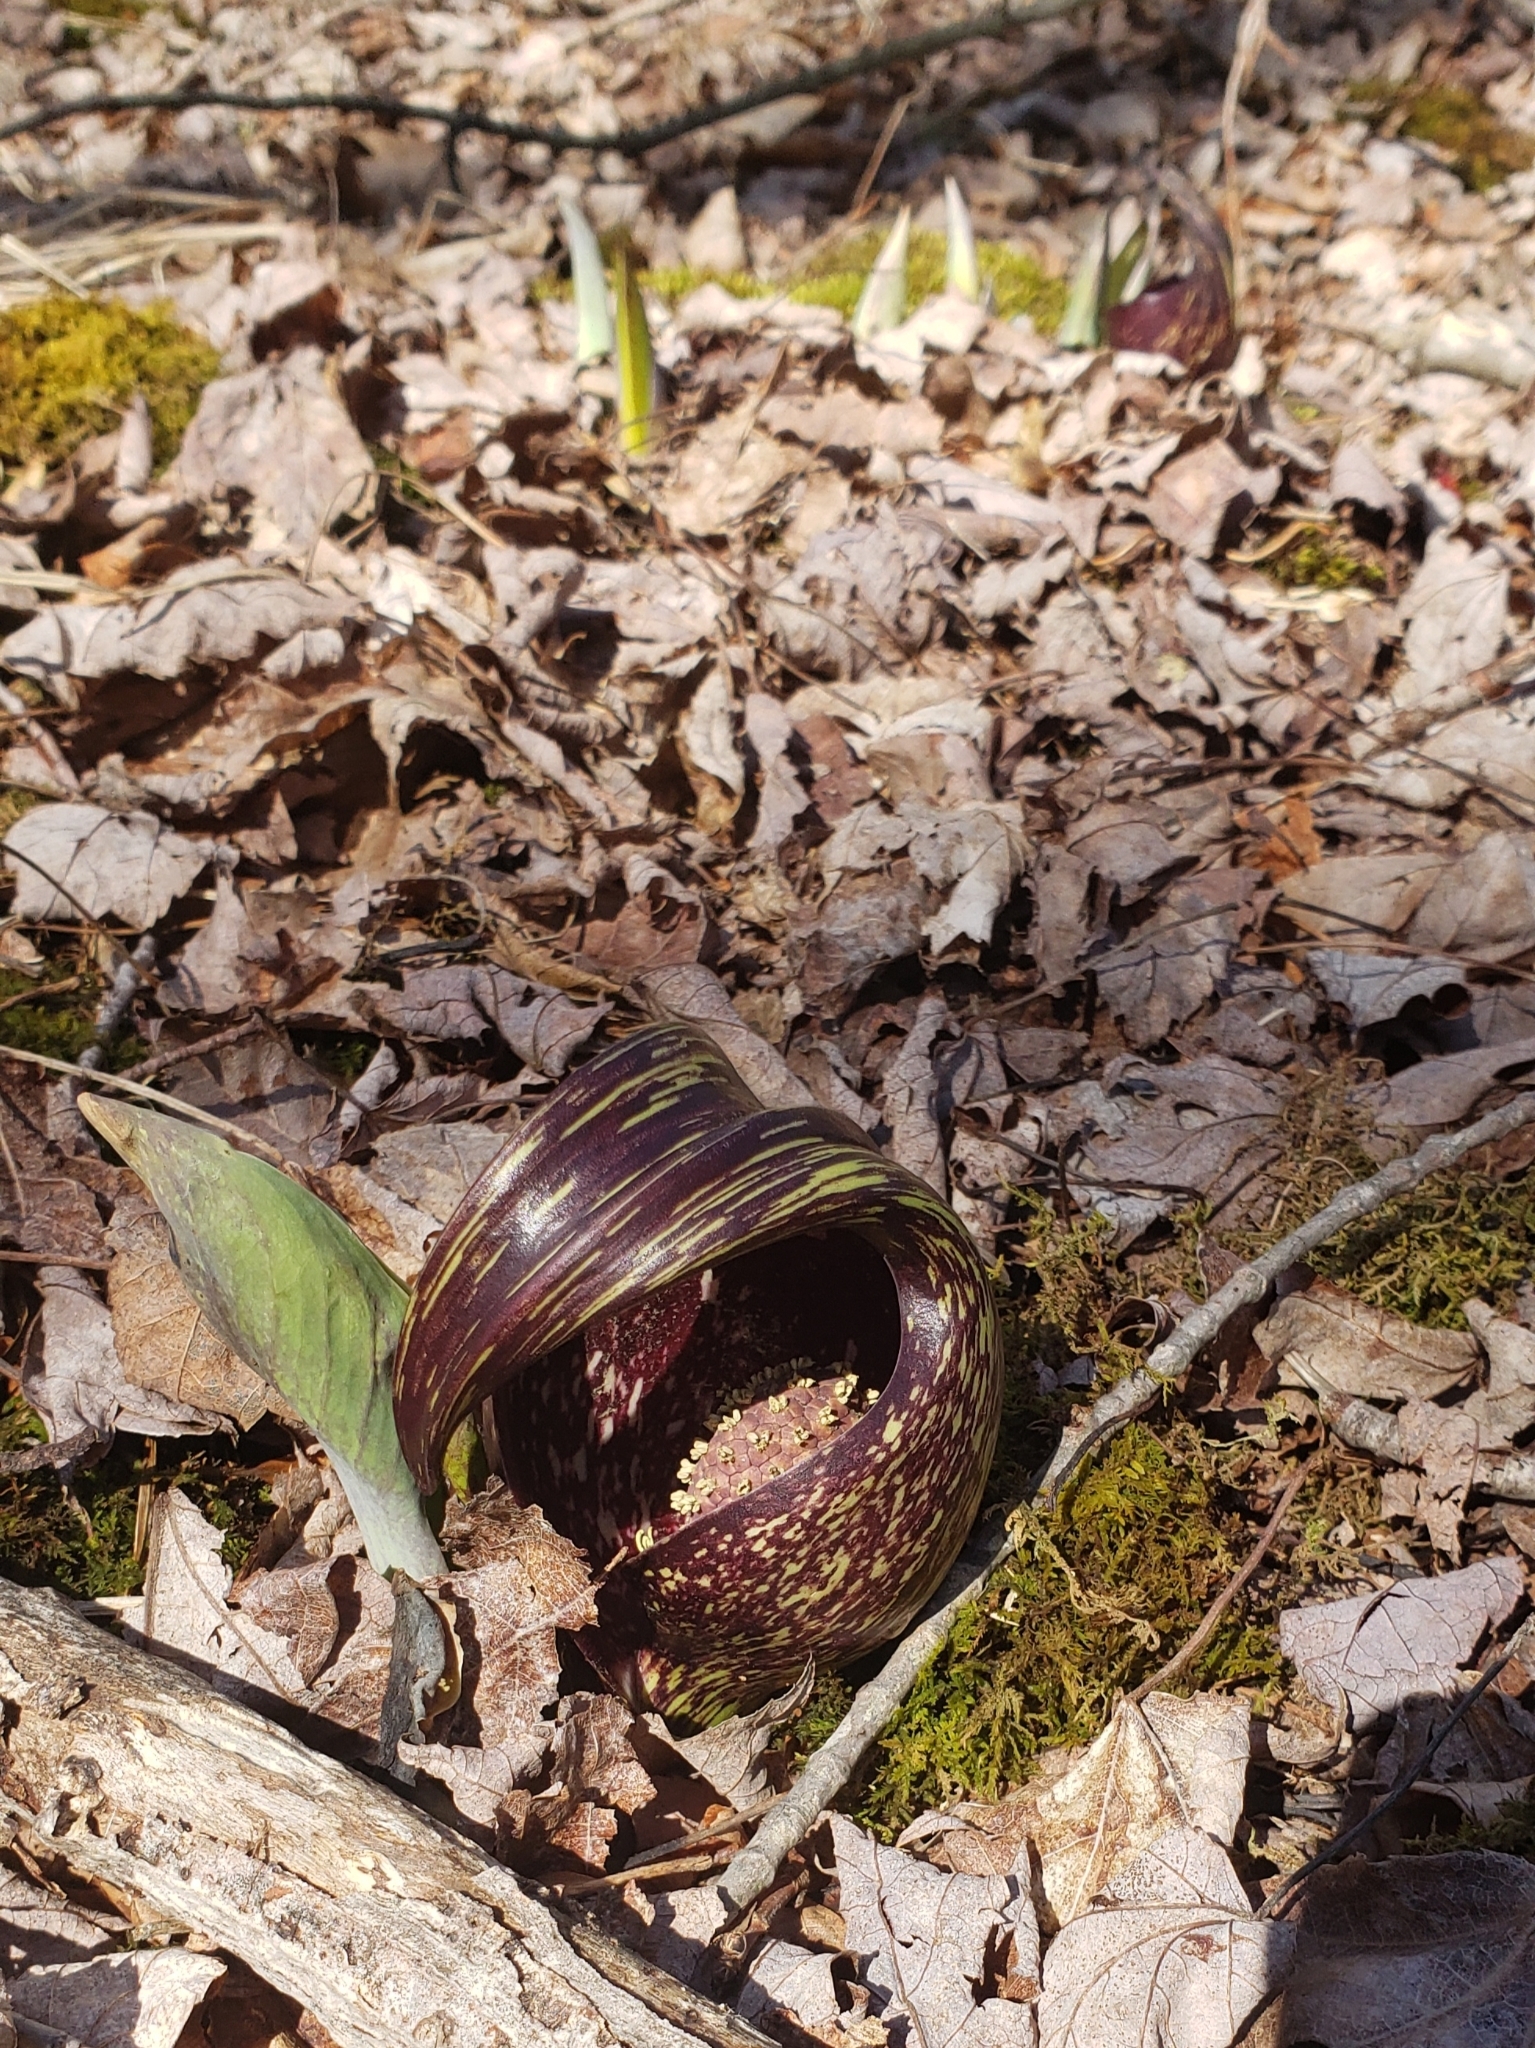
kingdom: Plantae
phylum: Tracheophyta
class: Liliopsida
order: Alismatales
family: Araceae
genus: Symplocarpus
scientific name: Symplocarpus foetidus
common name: Eastern skunk cabbage
